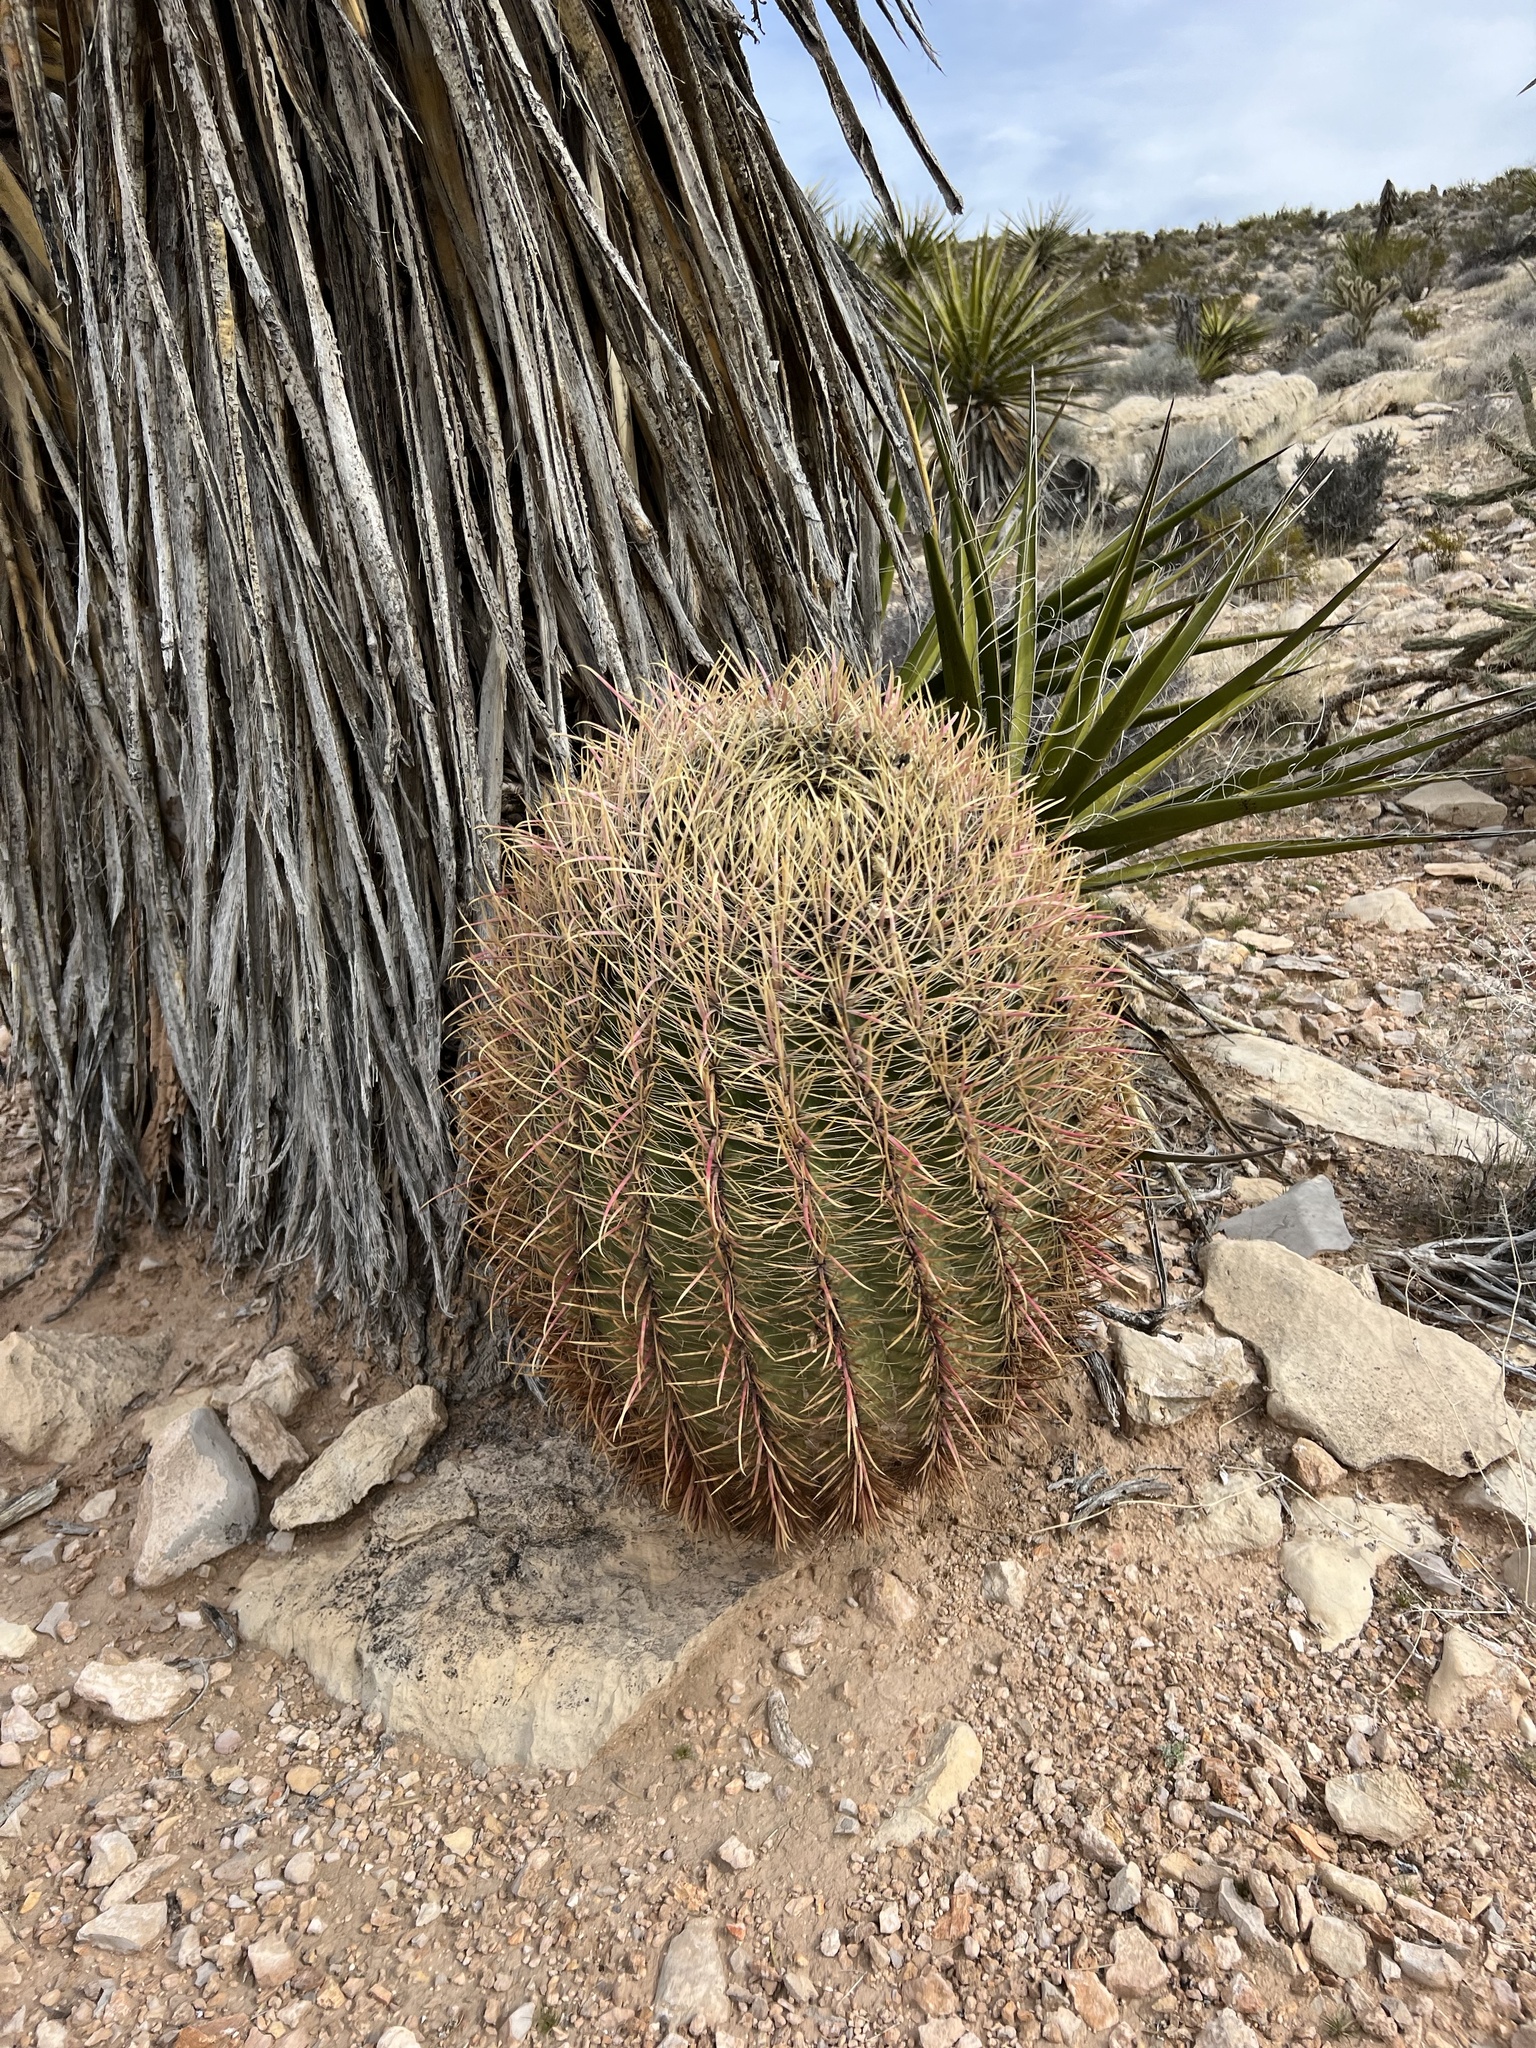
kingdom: Plantae
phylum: Tracheophyta
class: Magnoliopsida
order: Caryophyllales
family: Cactaceae
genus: Ferocactus
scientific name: Ferocactus cylindraceus
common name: California barrel cactus
